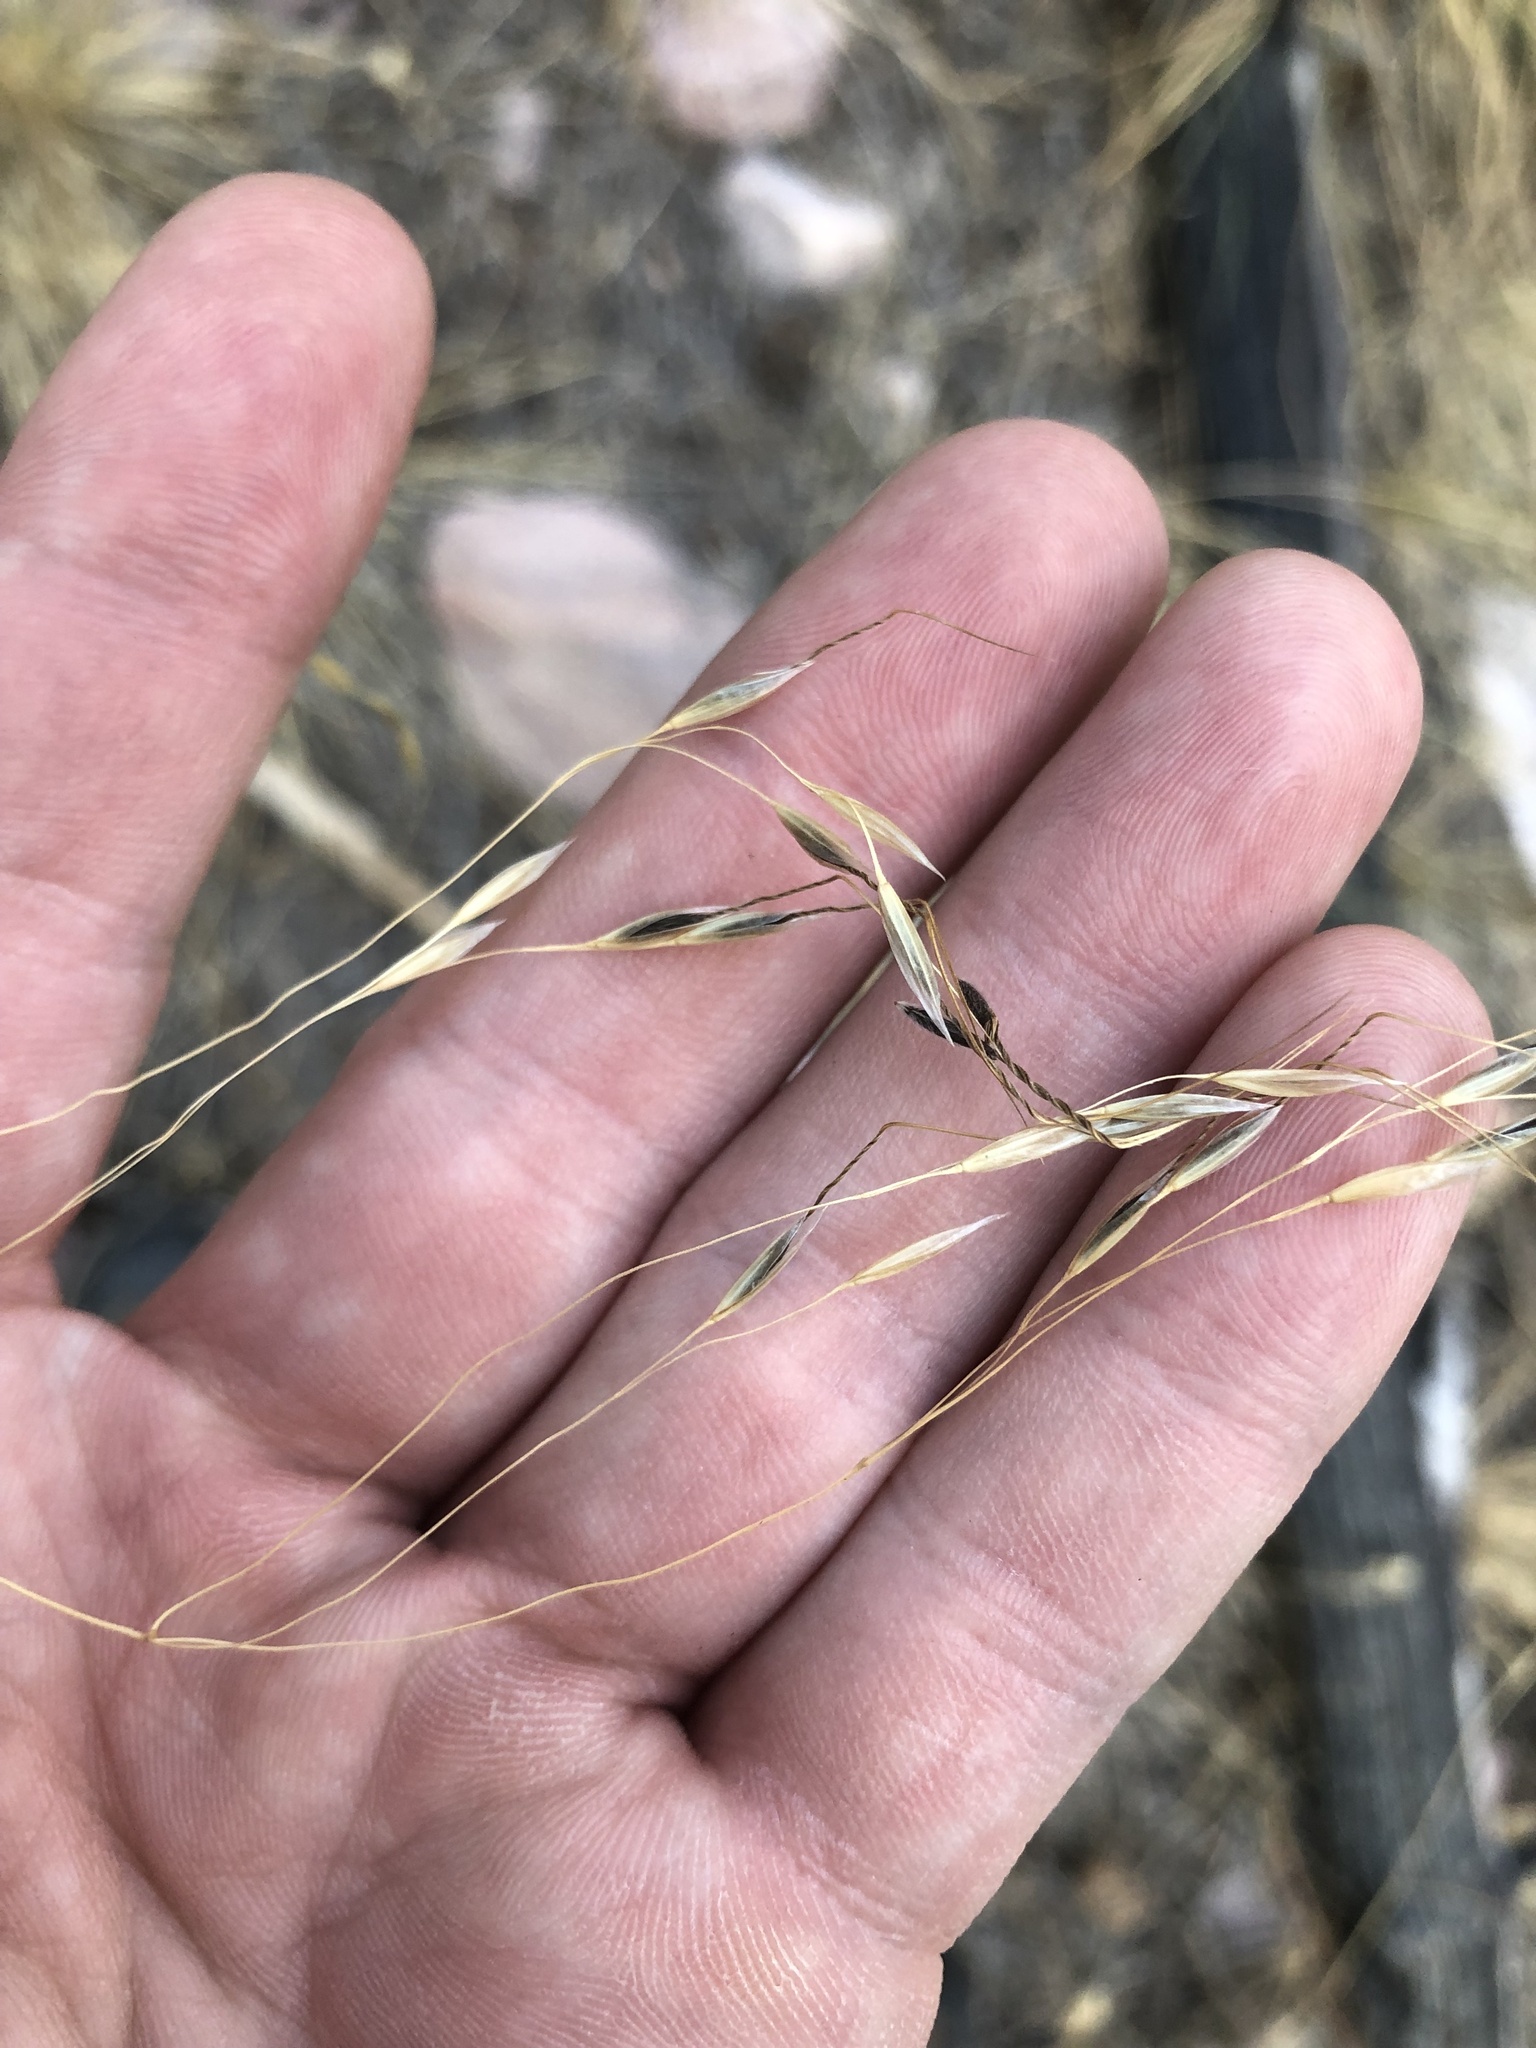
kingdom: Plantae
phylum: Tracheophyta
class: Liliopsida
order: Poales
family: Poaceae
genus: Eriocoma
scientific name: Eriocoma richardsonii
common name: Richardson's needlegrass
